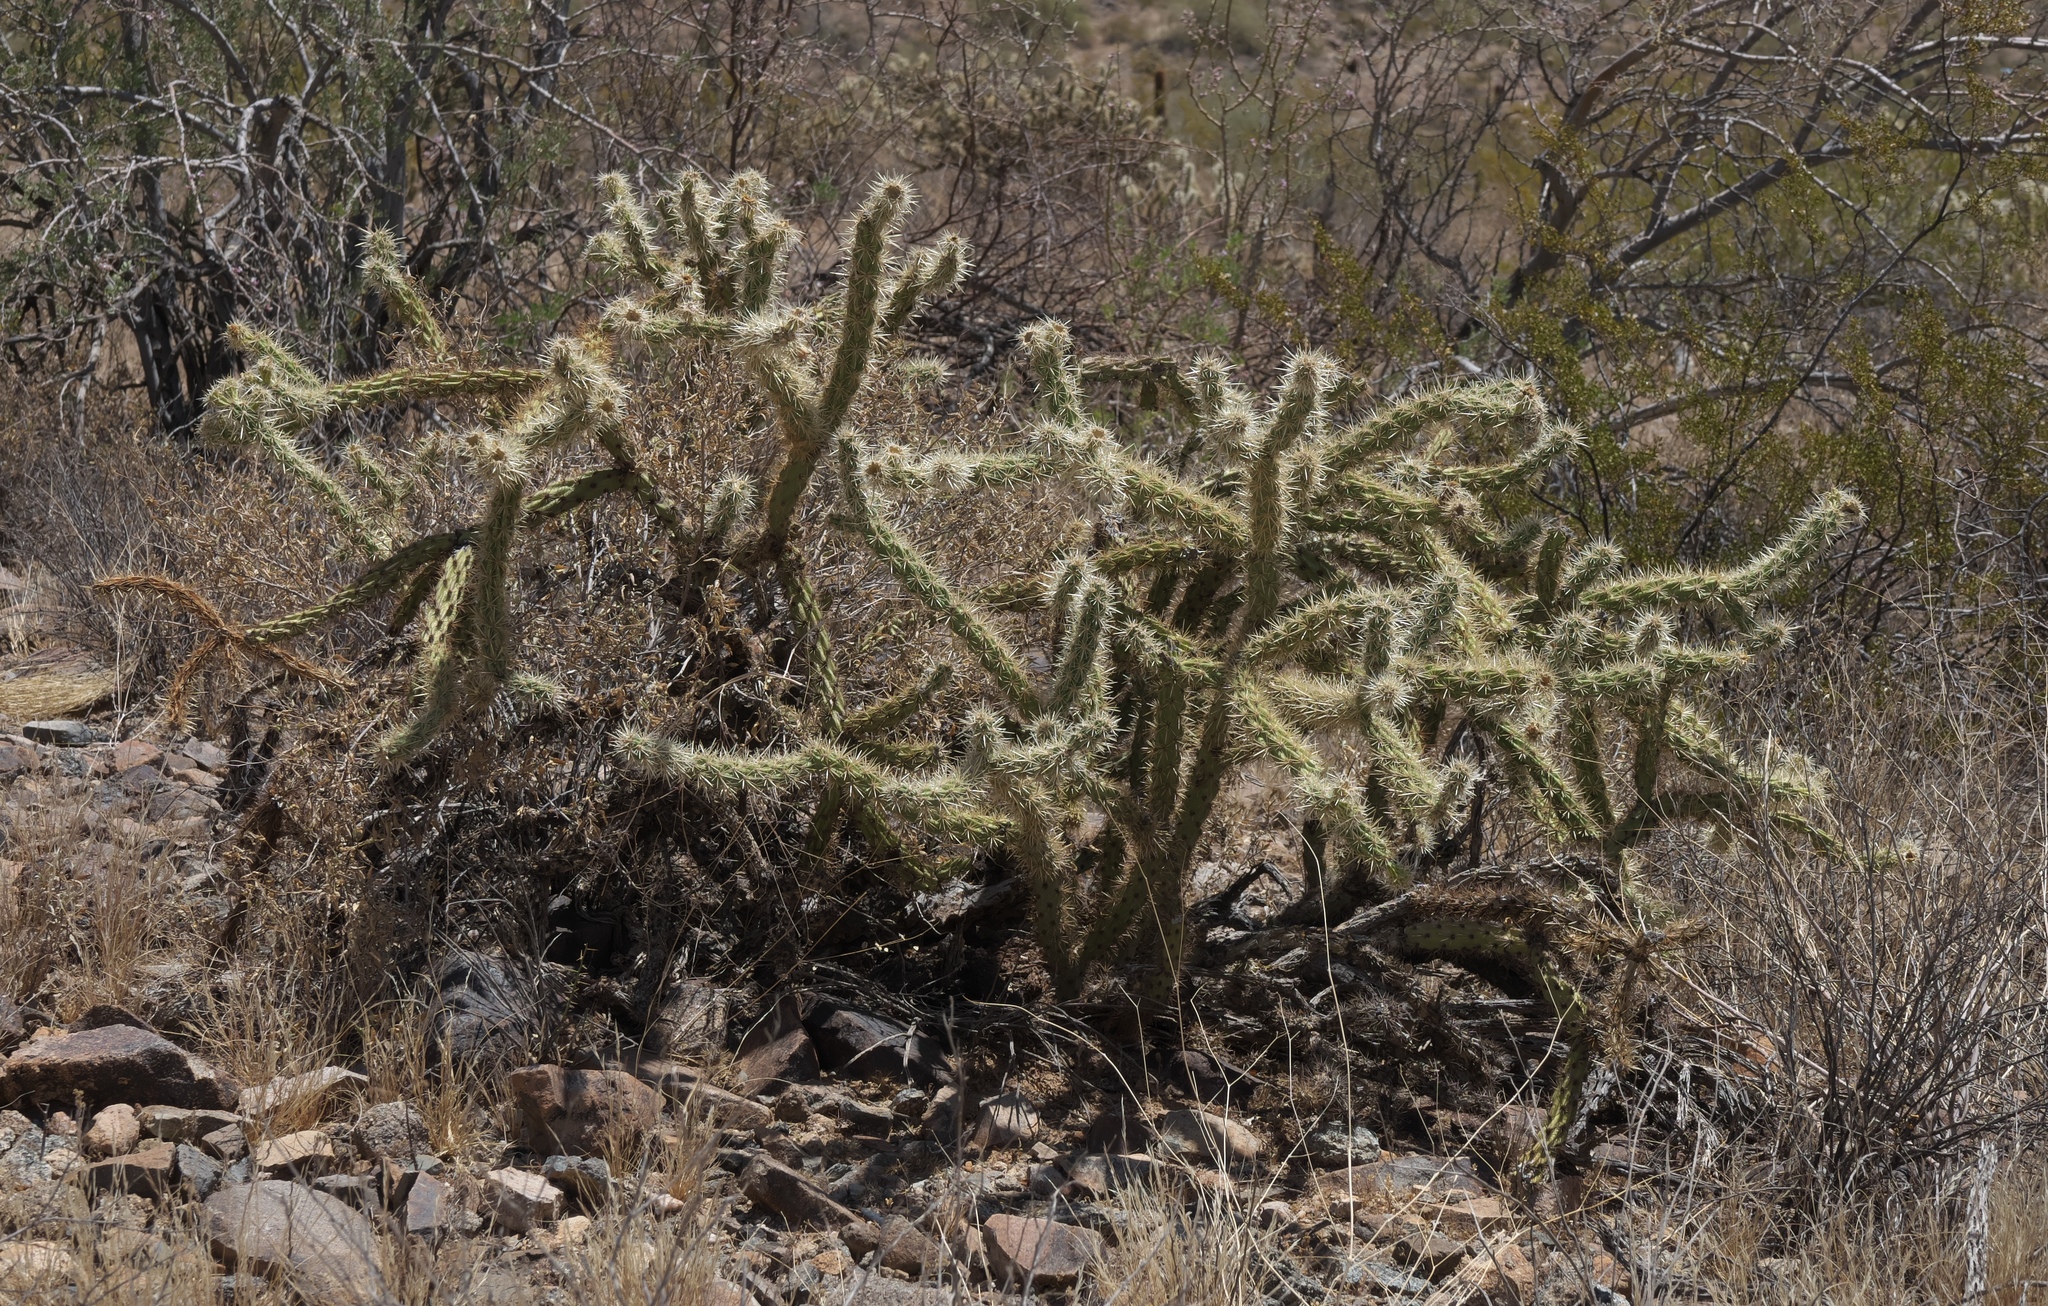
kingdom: Plantae
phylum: Tracheophyta
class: Magnoliopsida
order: Caryophyllales
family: Cactaceae
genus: Cylindropuntia
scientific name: Cylindropuntia acanthocarpa
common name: Buckhorn cholla
